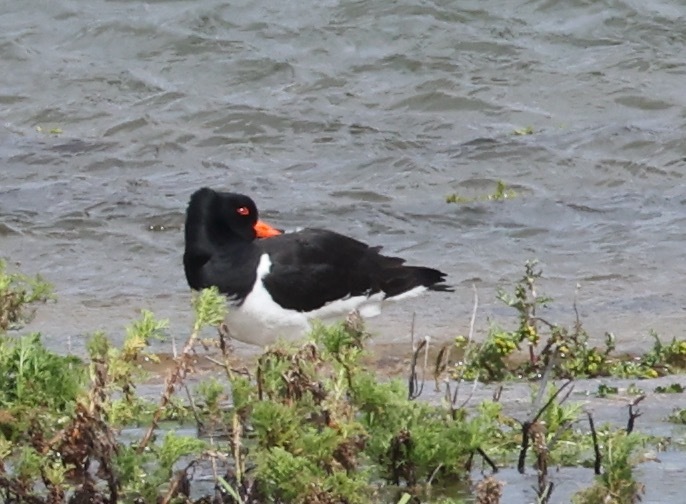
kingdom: Animalia
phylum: Chordata
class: Aves
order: Charadriiformes
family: Haematopodidae
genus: Haematopus
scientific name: Haematopus ostralegus
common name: Eurasian oystercatcher
